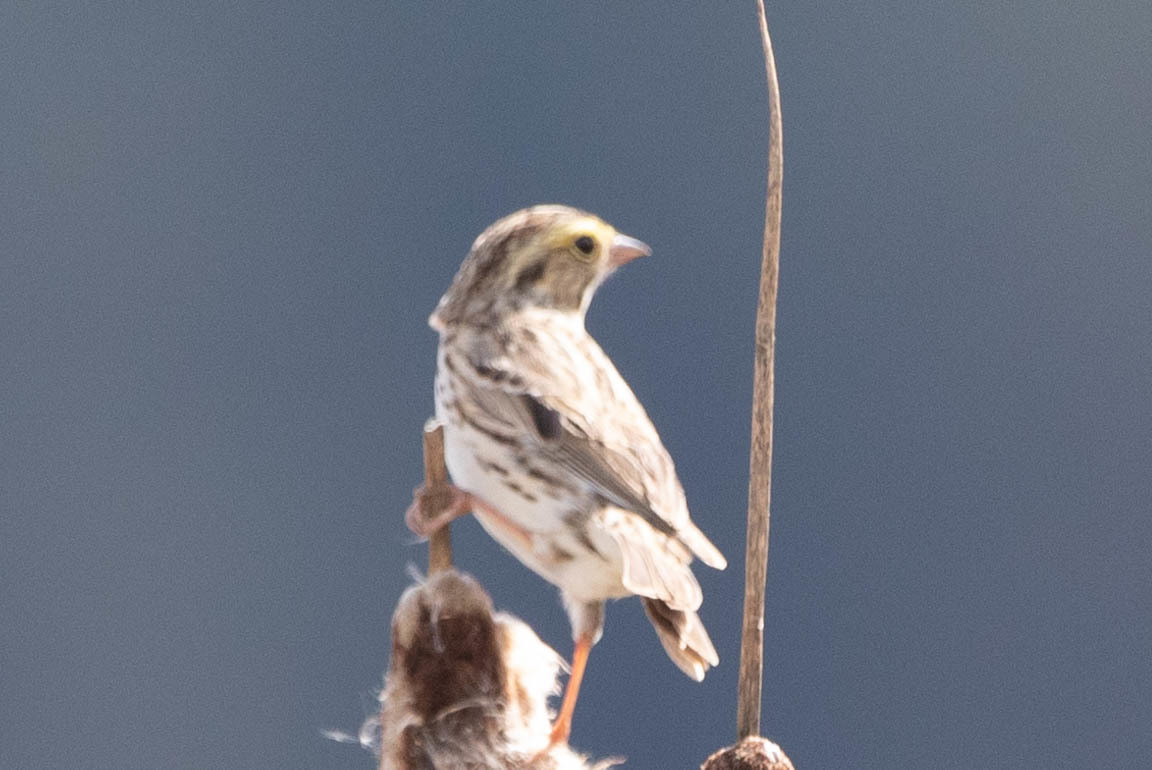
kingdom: Animalia
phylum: Chordata
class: Aves
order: Passeriformes
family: Passerellidae
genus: Passerculus
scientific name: Passerculus sandwichensis
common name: Savannah sparrow
